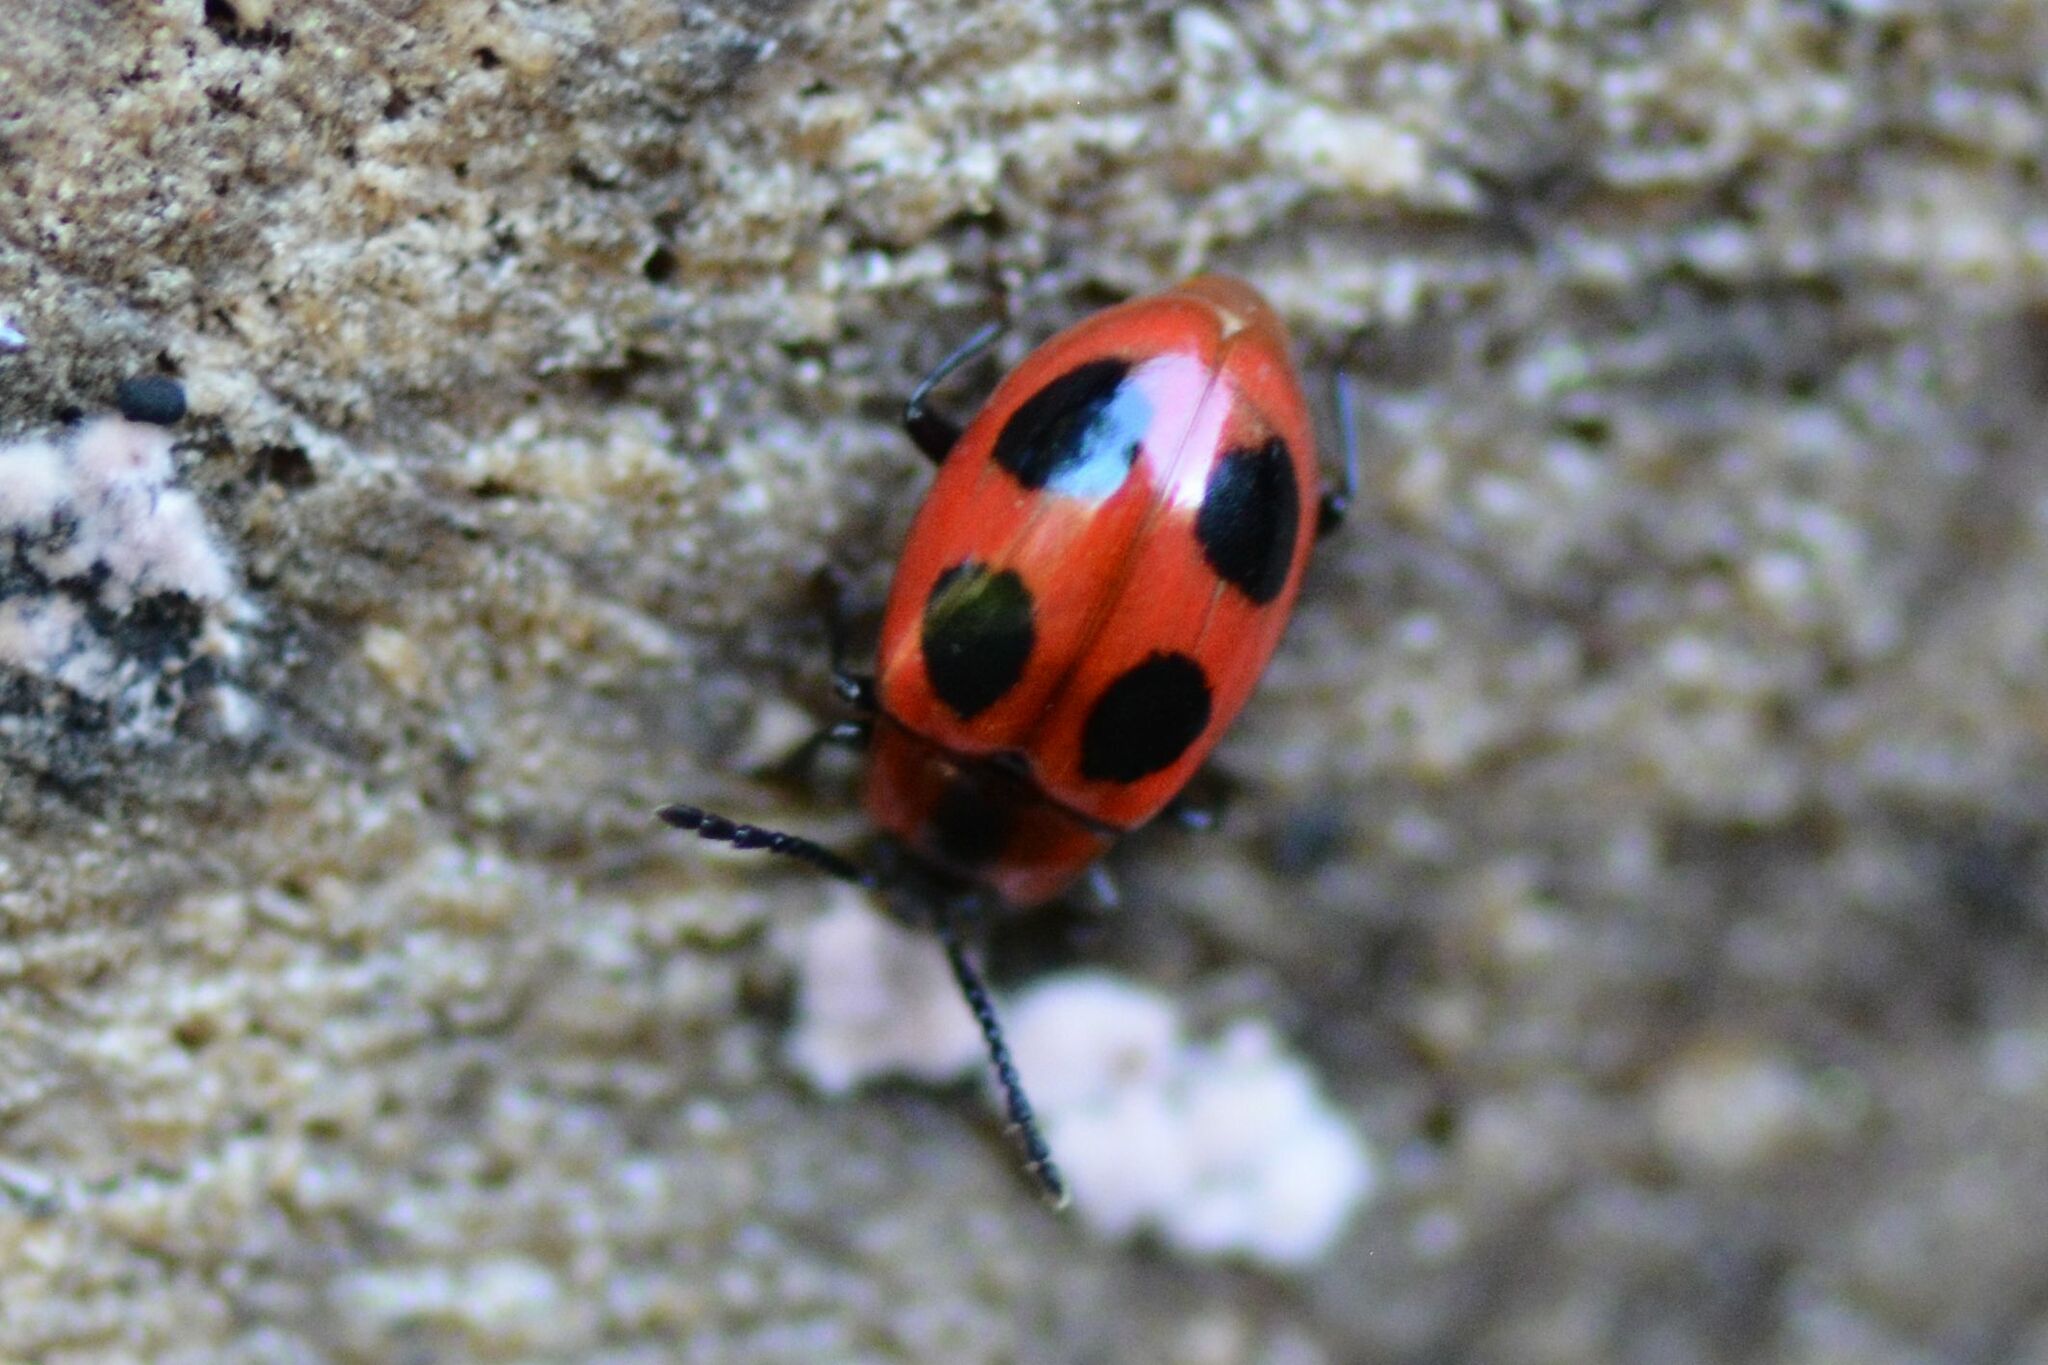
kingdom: Animalia
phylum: Arthropoda
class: Insecta
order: Coleoptera
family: Endomychidae
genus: Endomychus
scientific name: Endomychus coccineus
